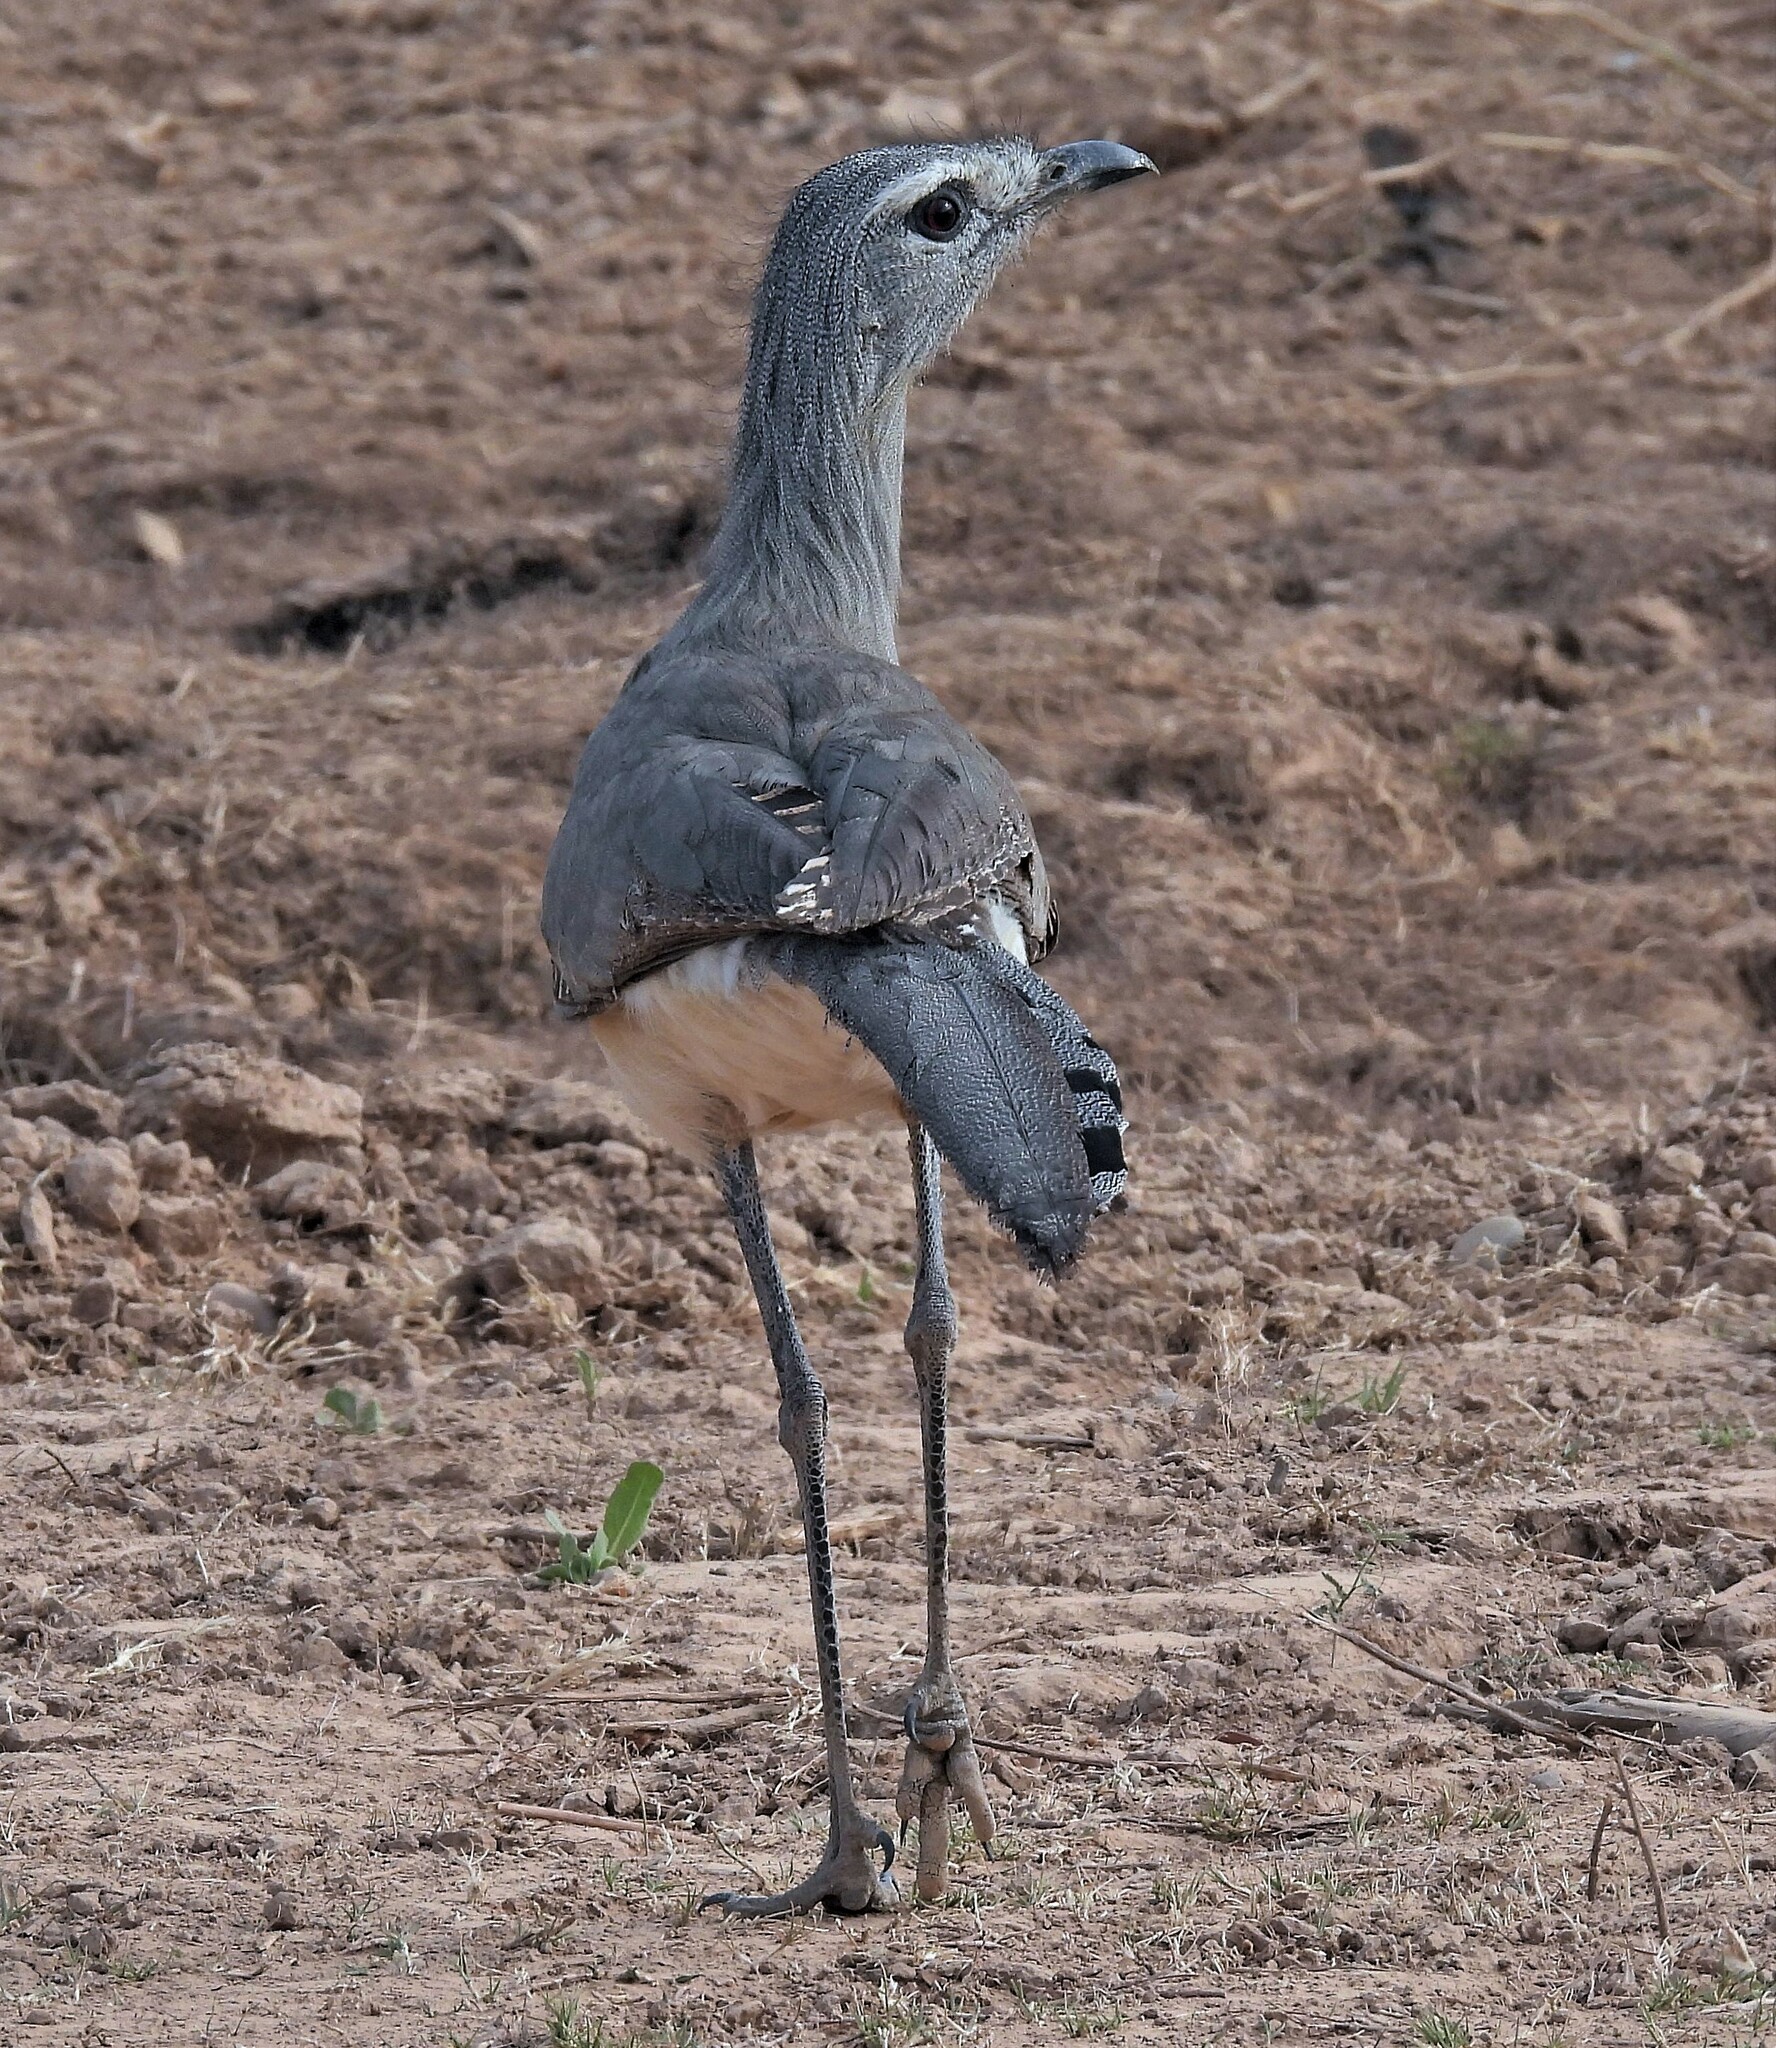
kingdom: Animalia
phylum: Chordata
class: Aves
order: Cariamiformes
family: Cariamidae
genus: Chunga
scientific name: Chunga burmeisteri
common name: Black-legged seriema
